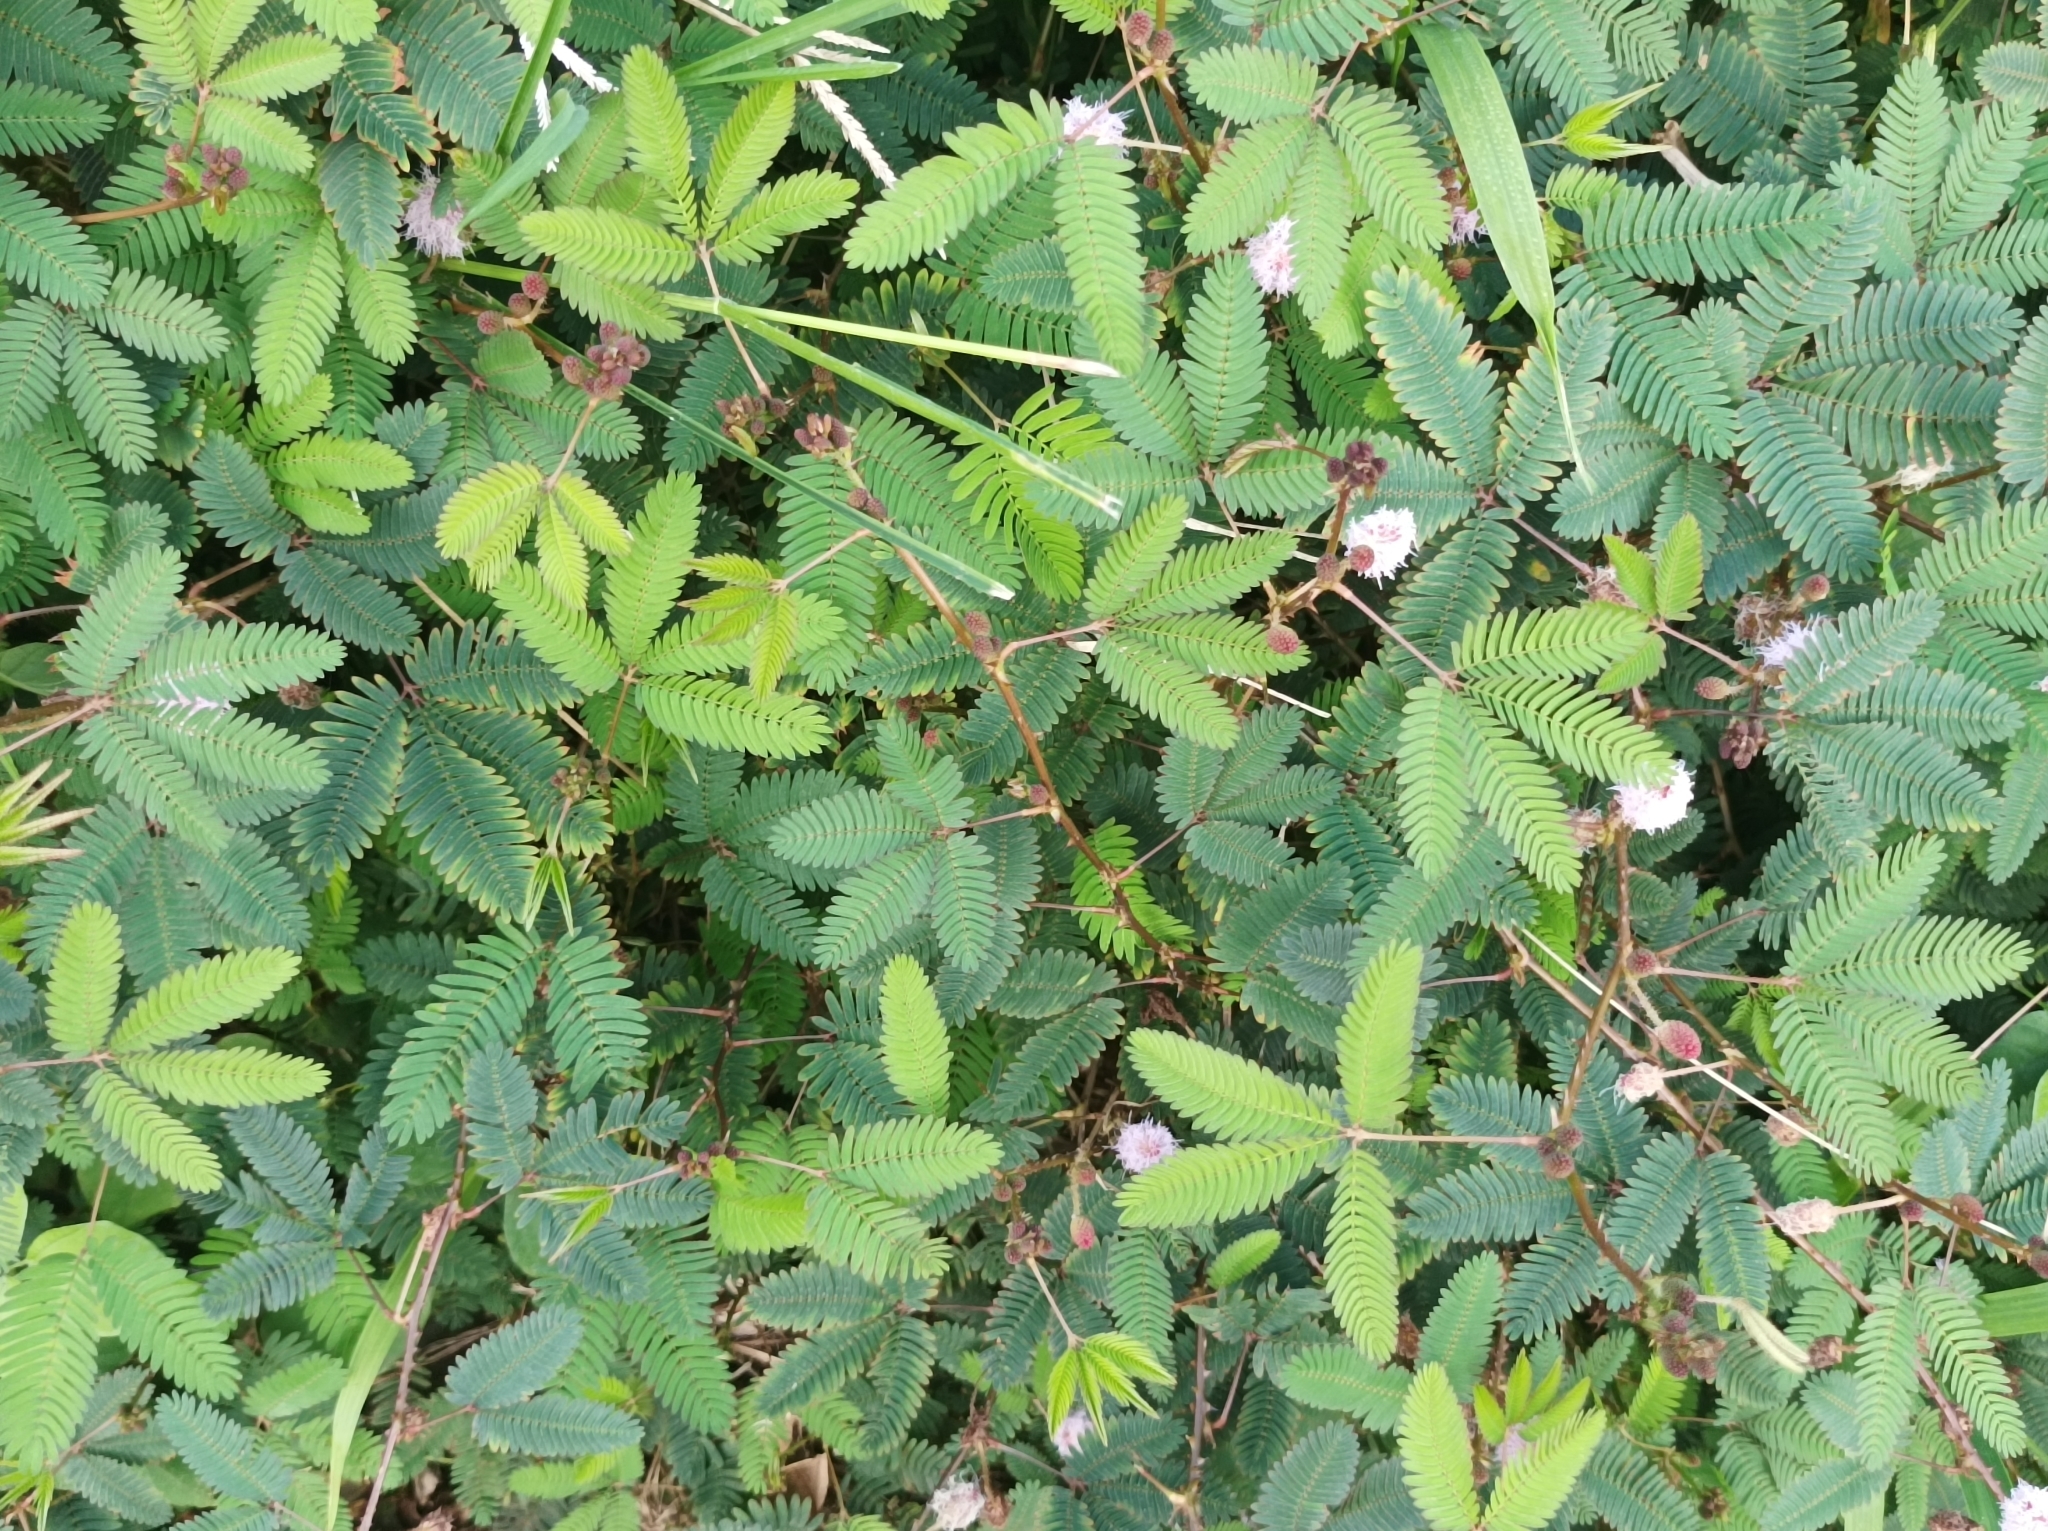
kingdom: Plantae
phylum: Tracheophyta
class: Magnoliopsida
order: Fabales
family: Fabaceae
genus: Mimosa
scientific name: Mimosa pudica
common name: Sensitive plant
